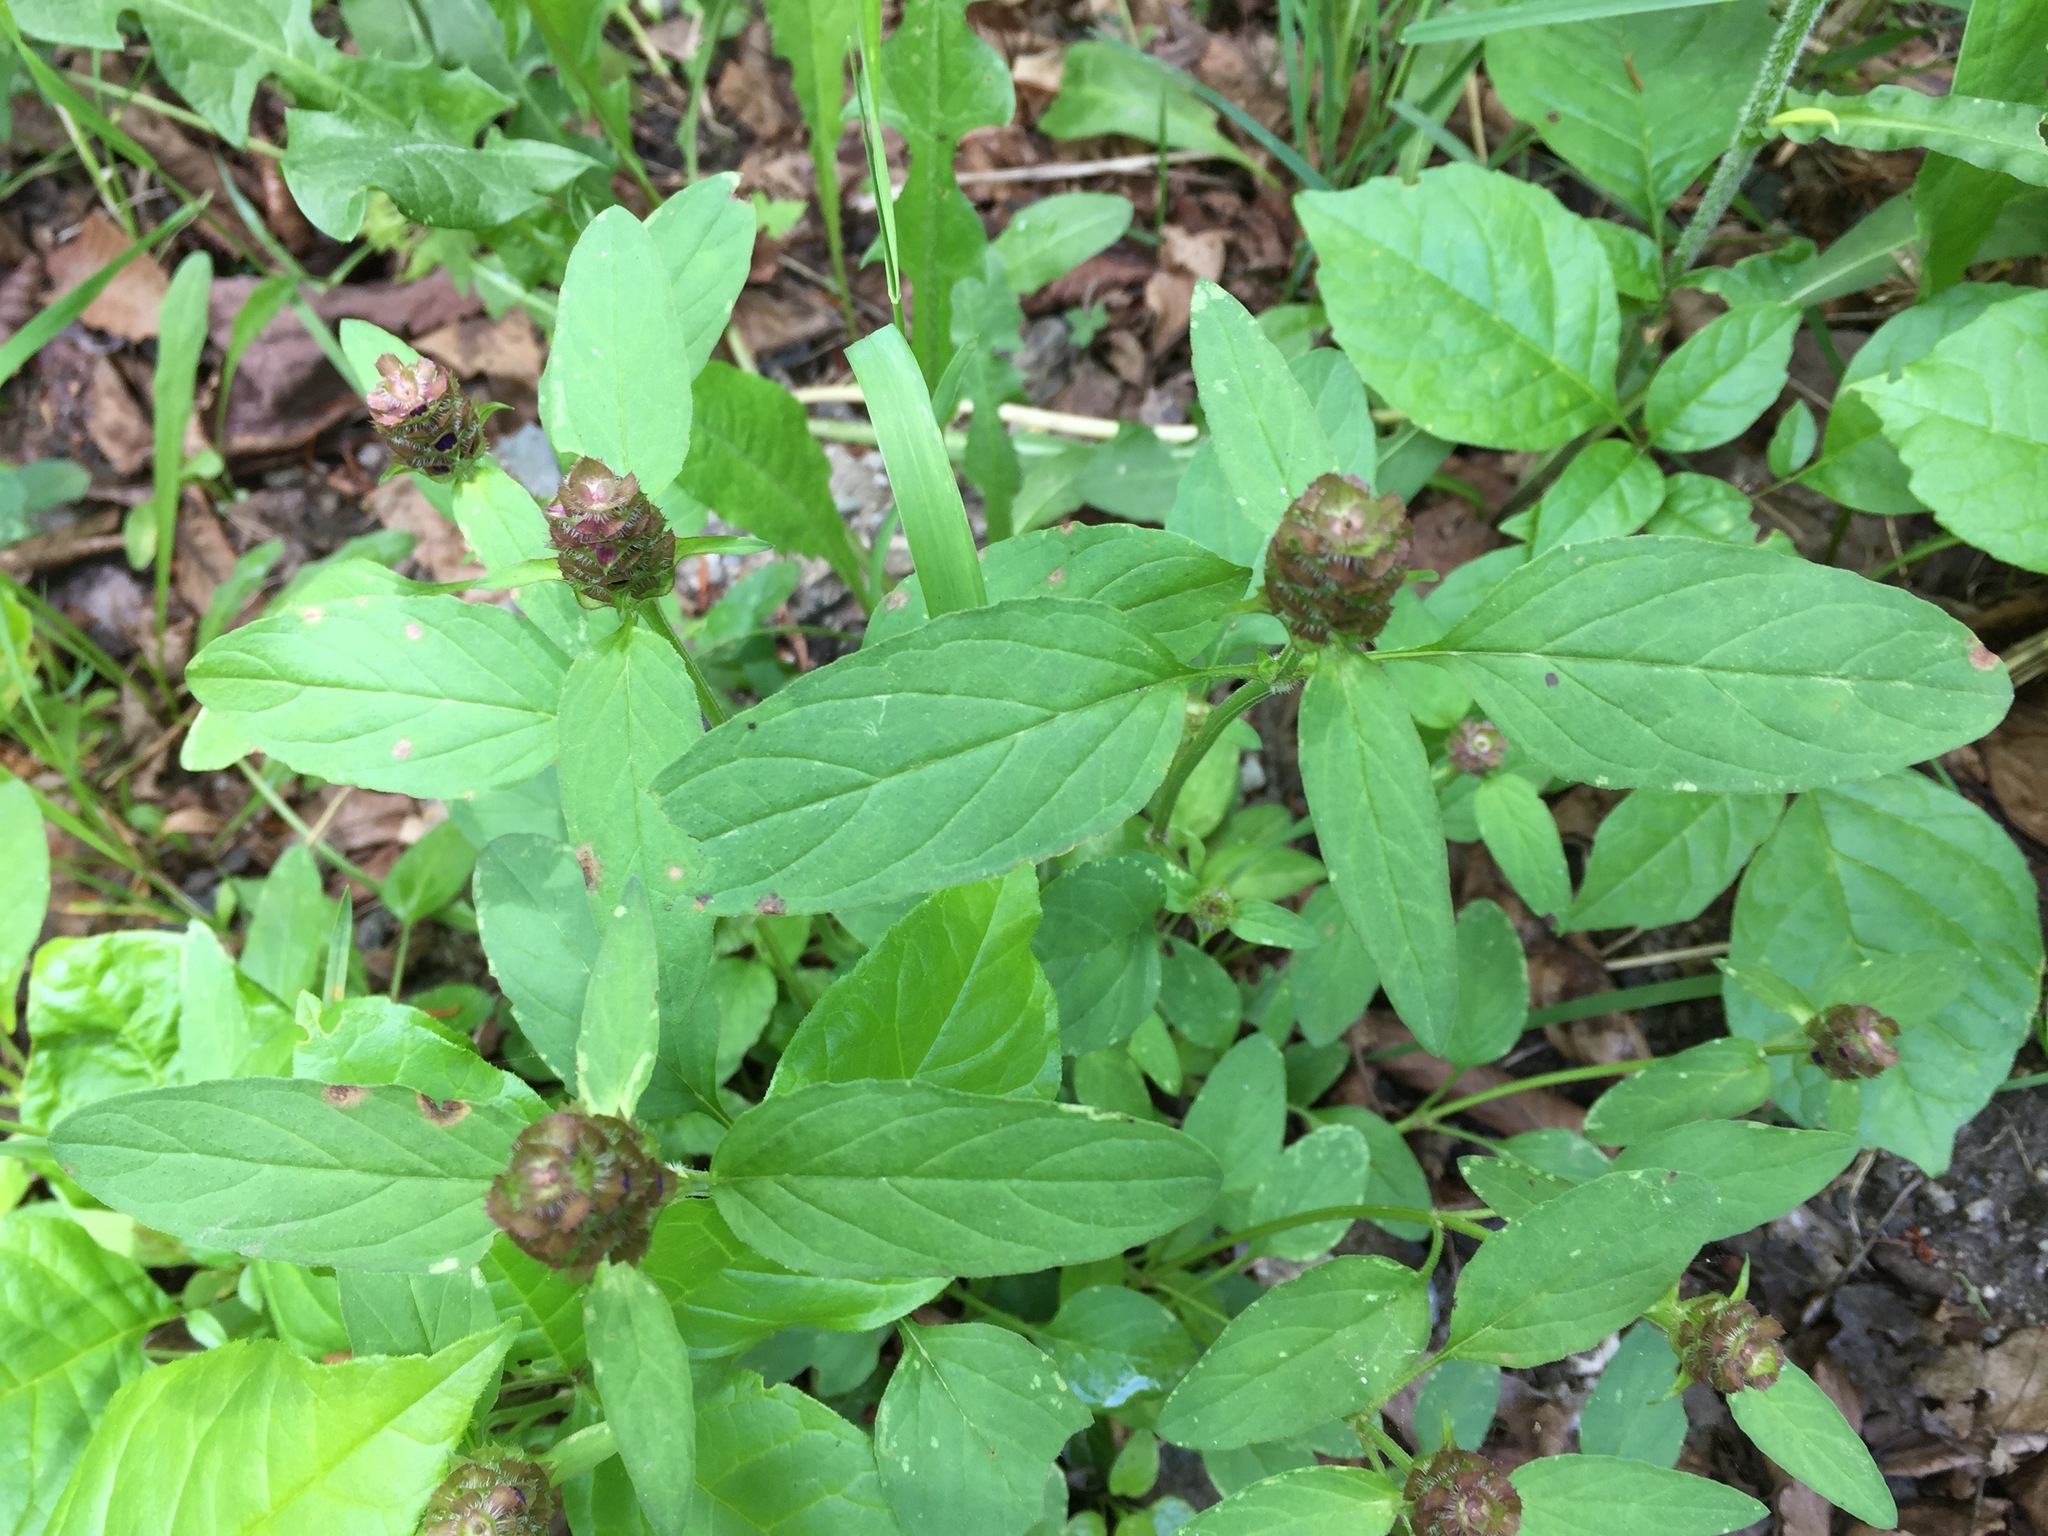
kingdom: Plantae
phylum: Tracheophyta
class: Magnoliopsida
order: Lamiales
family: Lamiaceae
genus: Prunella
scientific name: Prunella vulgaris
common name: Heal-all
